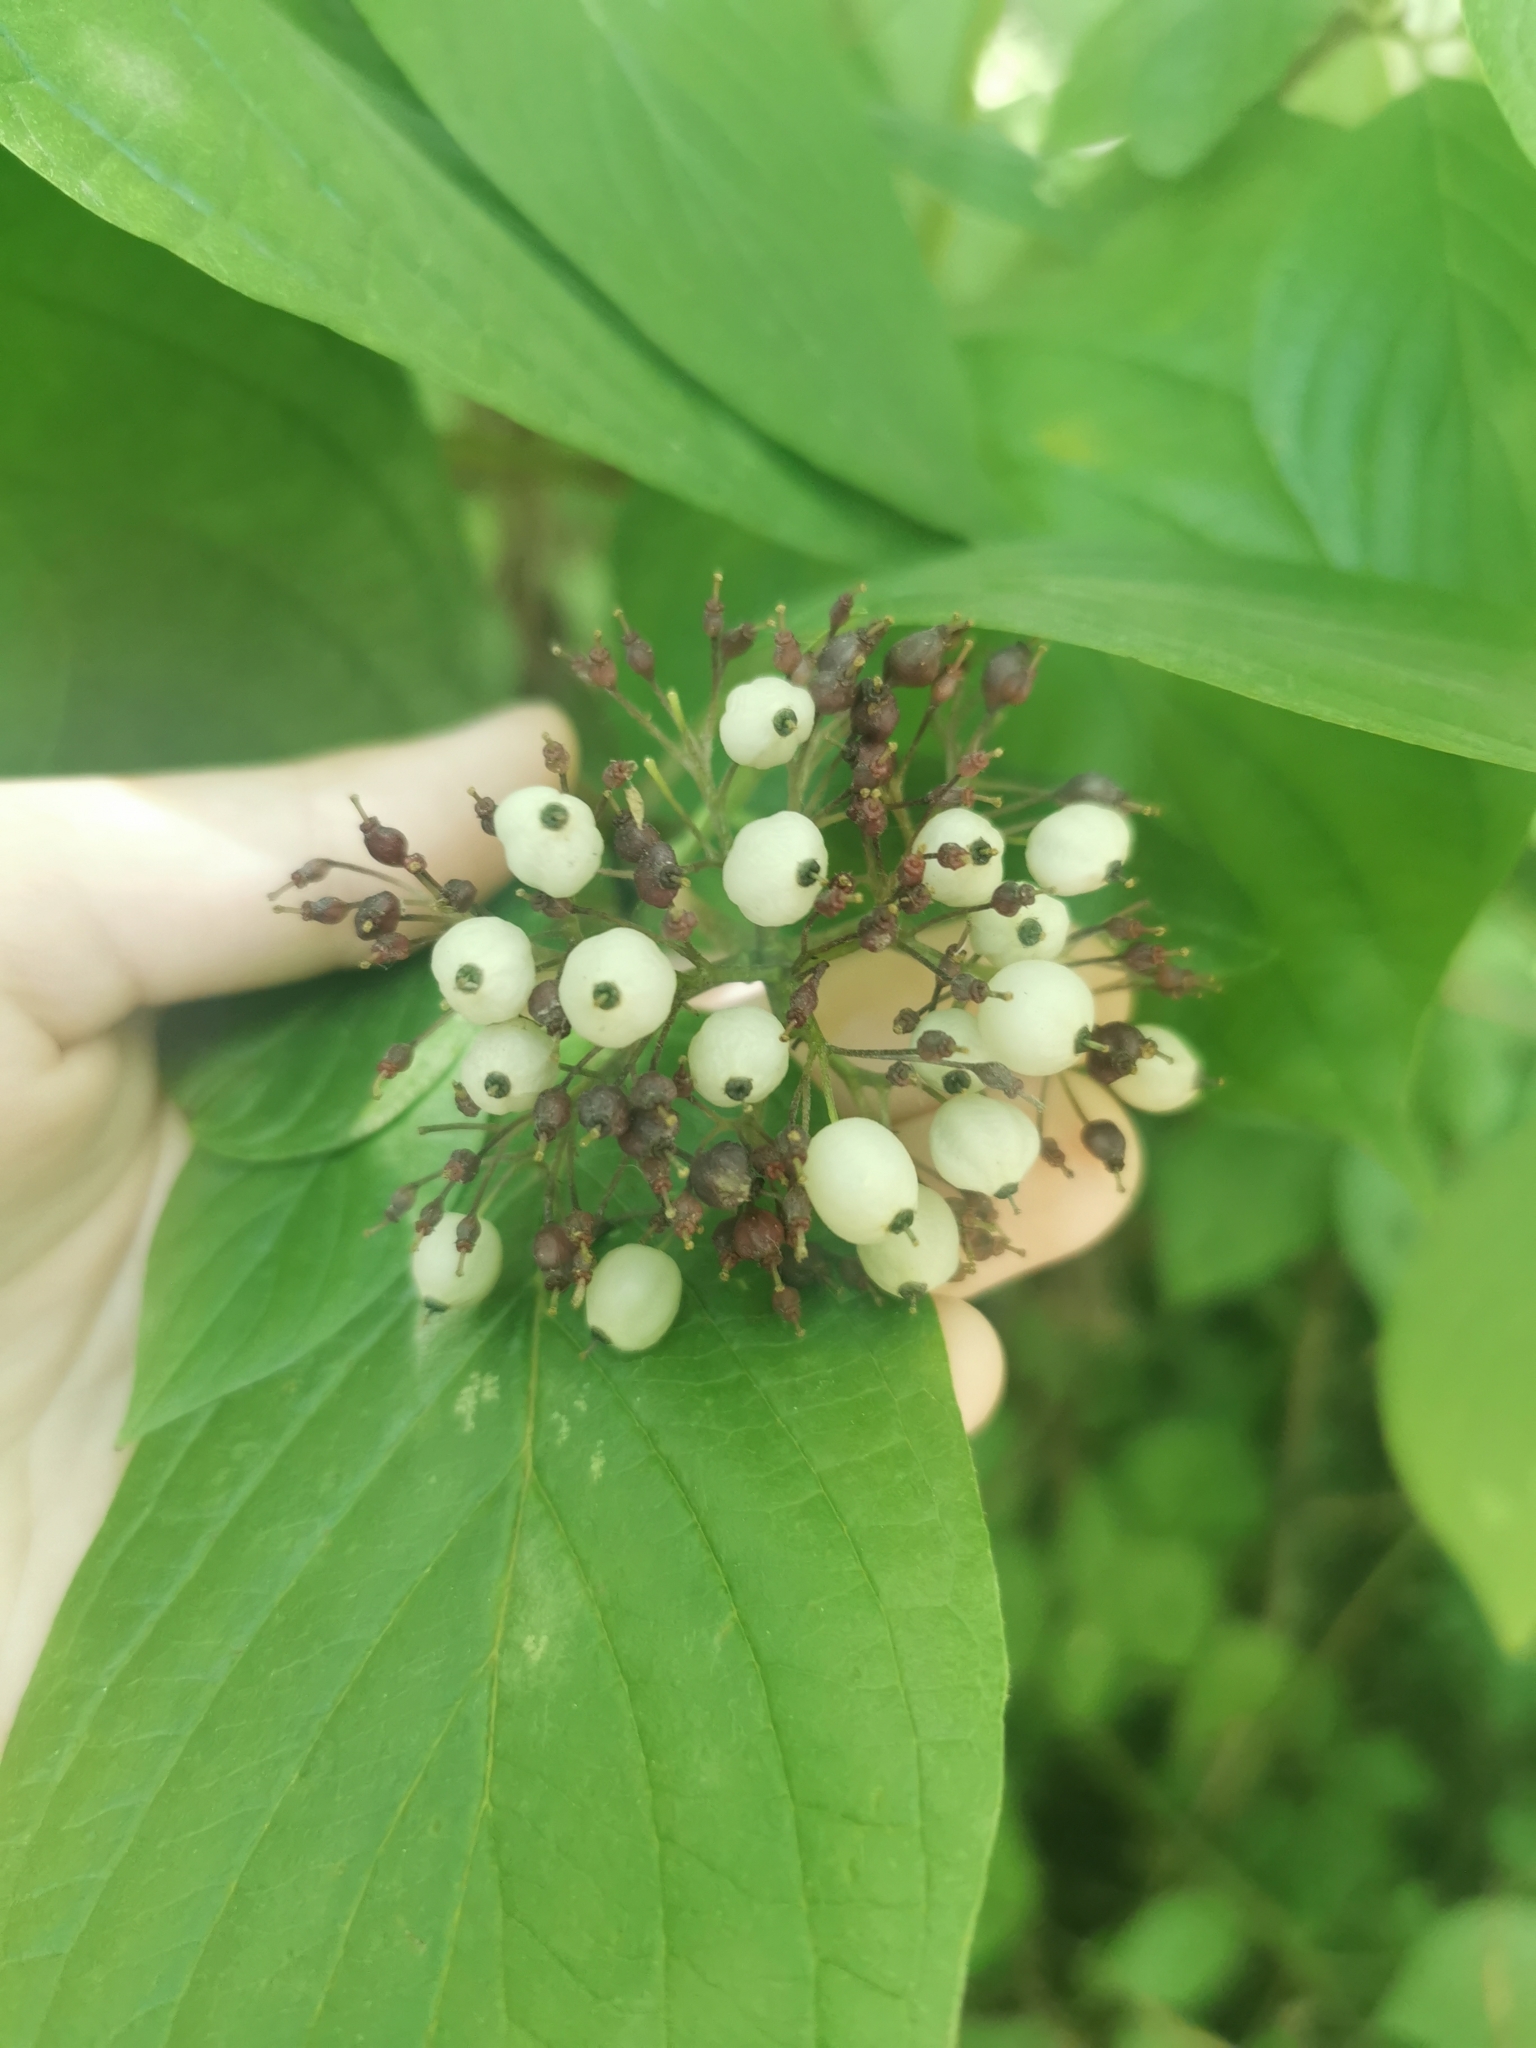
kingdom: Plantae
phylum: Tracheophyta
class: Magnoliopsida
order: Cornales
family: Cornaceae
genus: Cornus
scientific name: Cornus alba
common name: White dogwood
